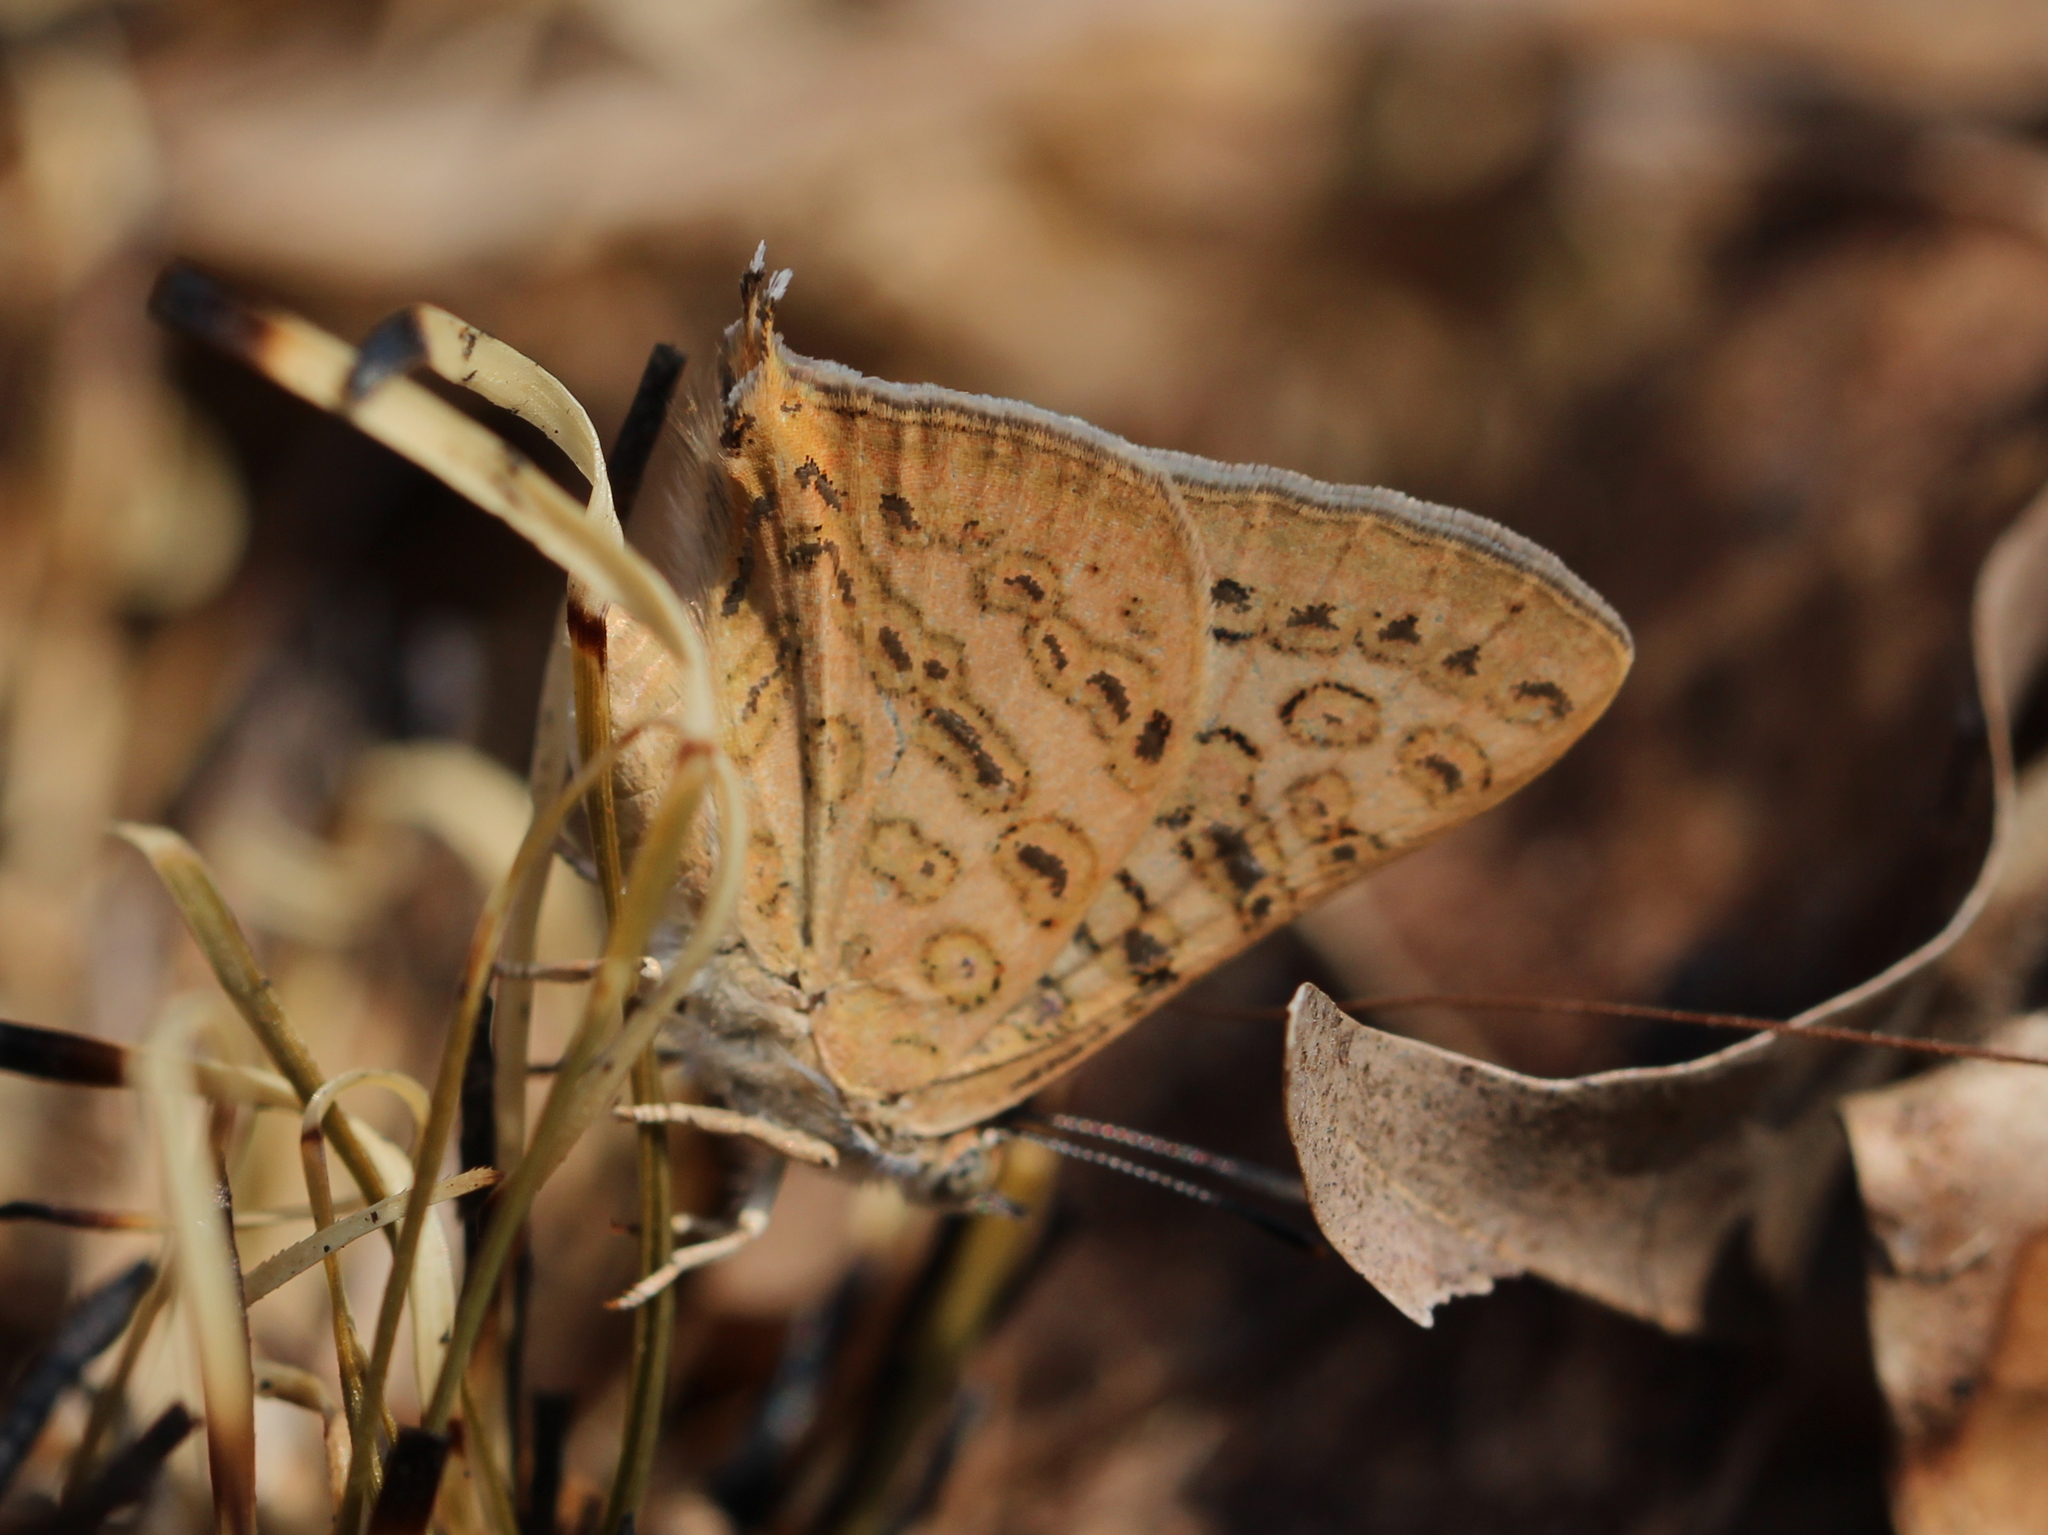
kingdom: Animalia
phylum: Arthropoda
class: Insecta
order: Lepidoptera
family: Lycaenidae
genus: Aphnaeus
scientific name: Aphnaeus lilacinus
